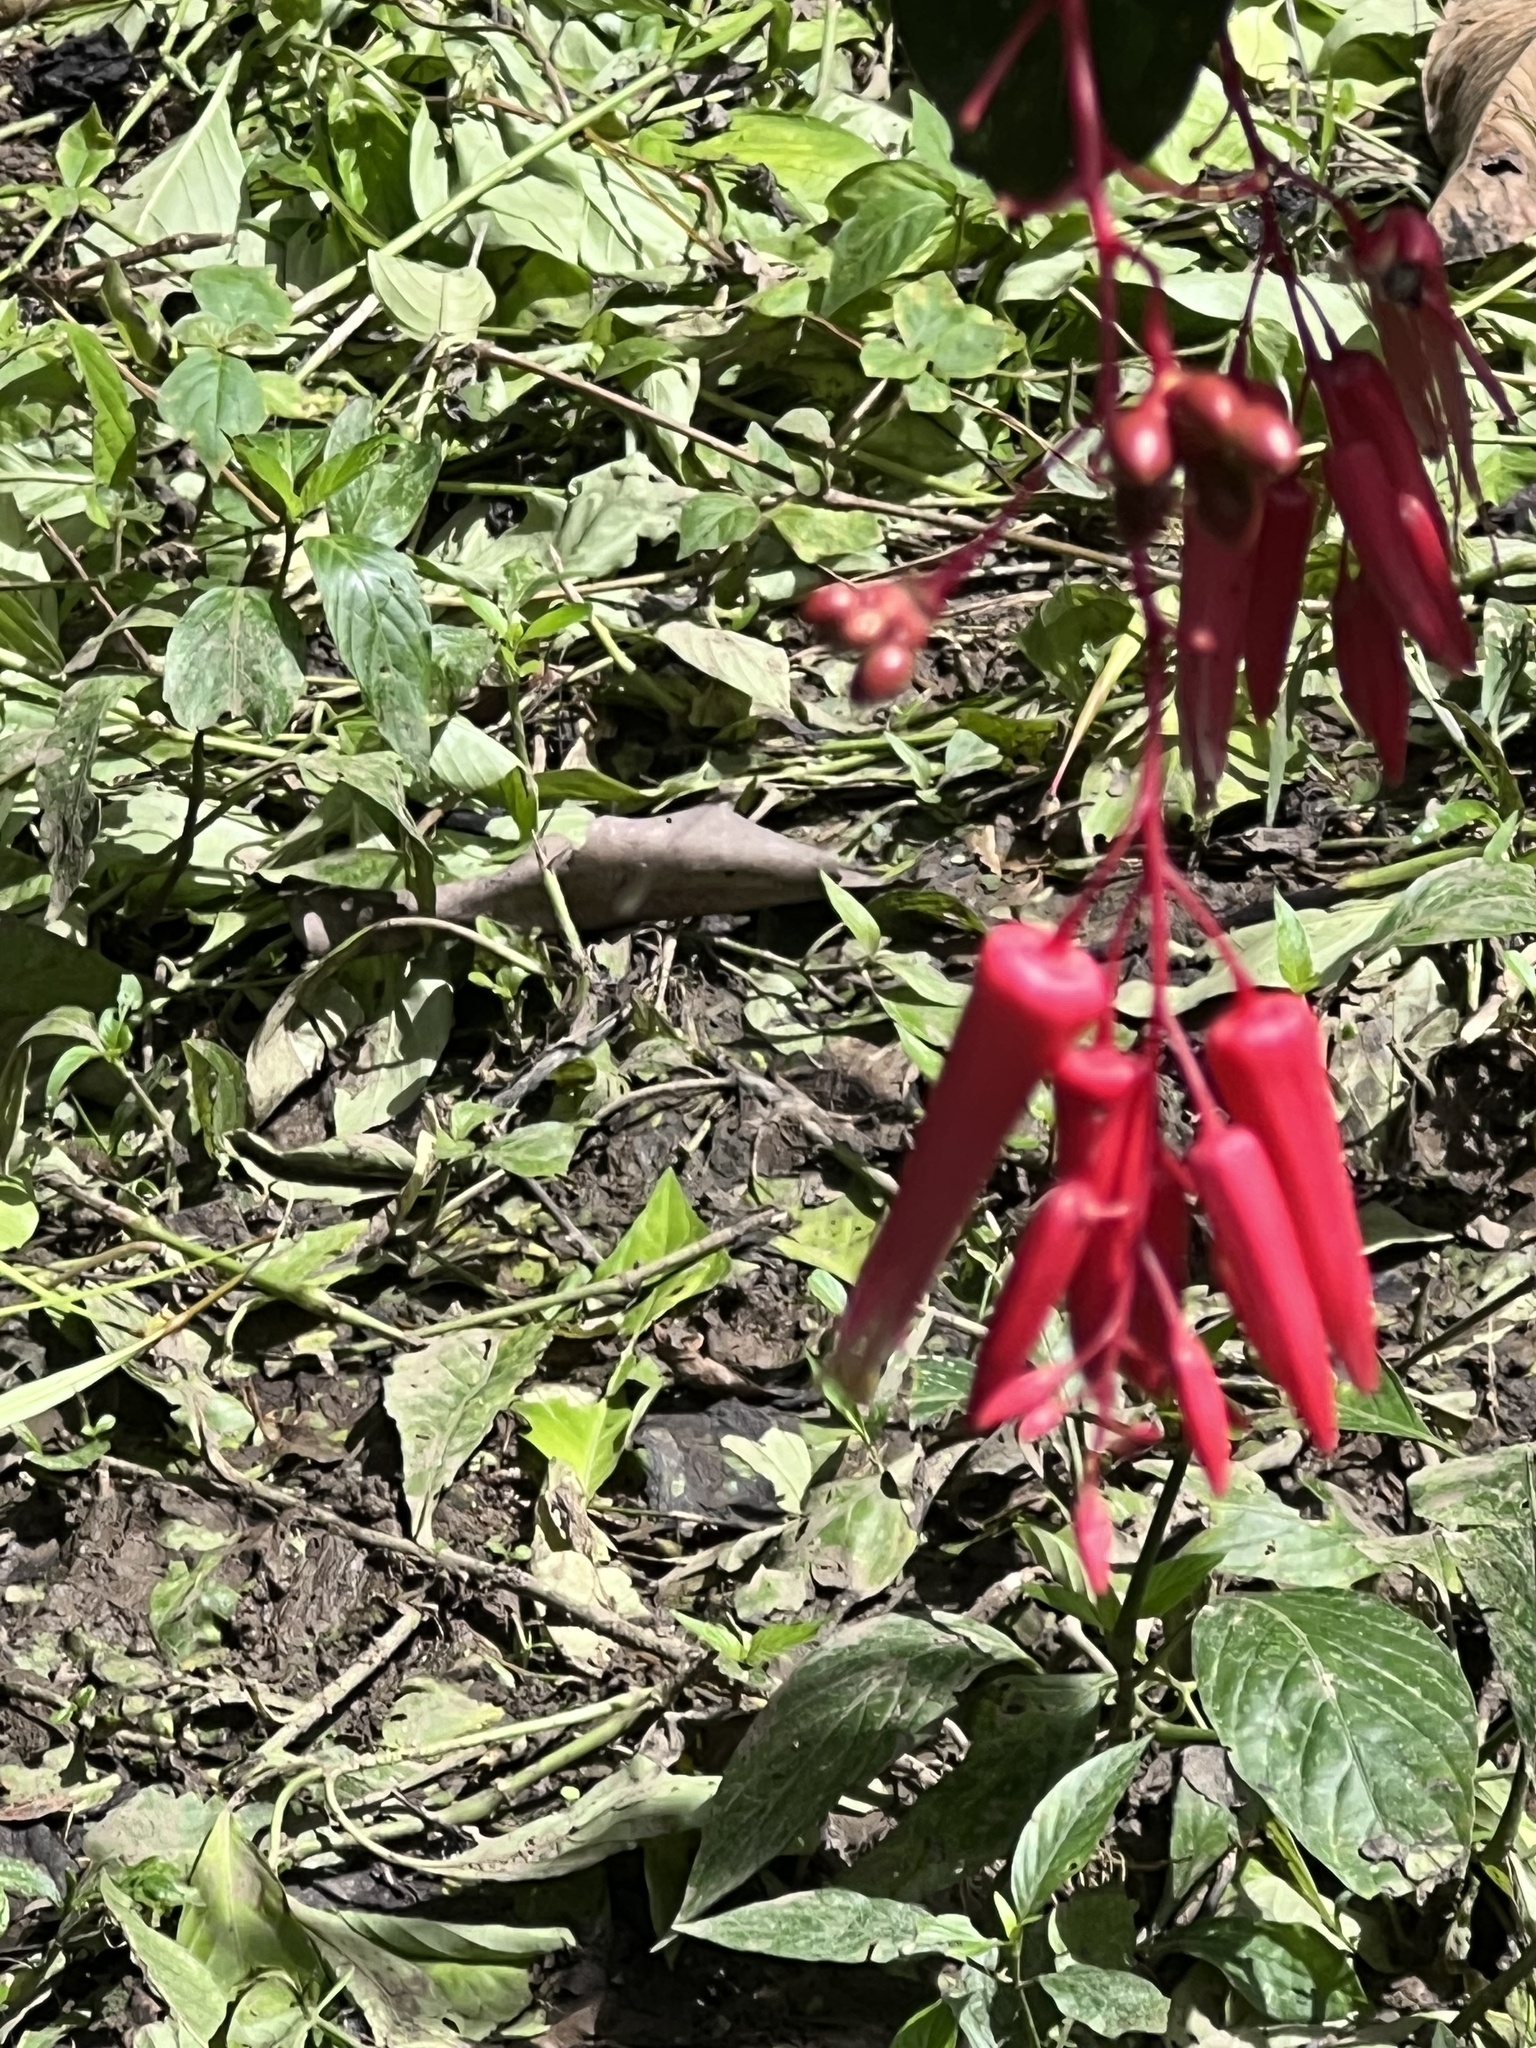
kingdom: Plantae
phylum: Tracheophyta
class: Magnoliopsida
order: Sapindales
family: Simaroubaceae
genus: Quassia
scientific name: Quassia amara
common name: Quassia
